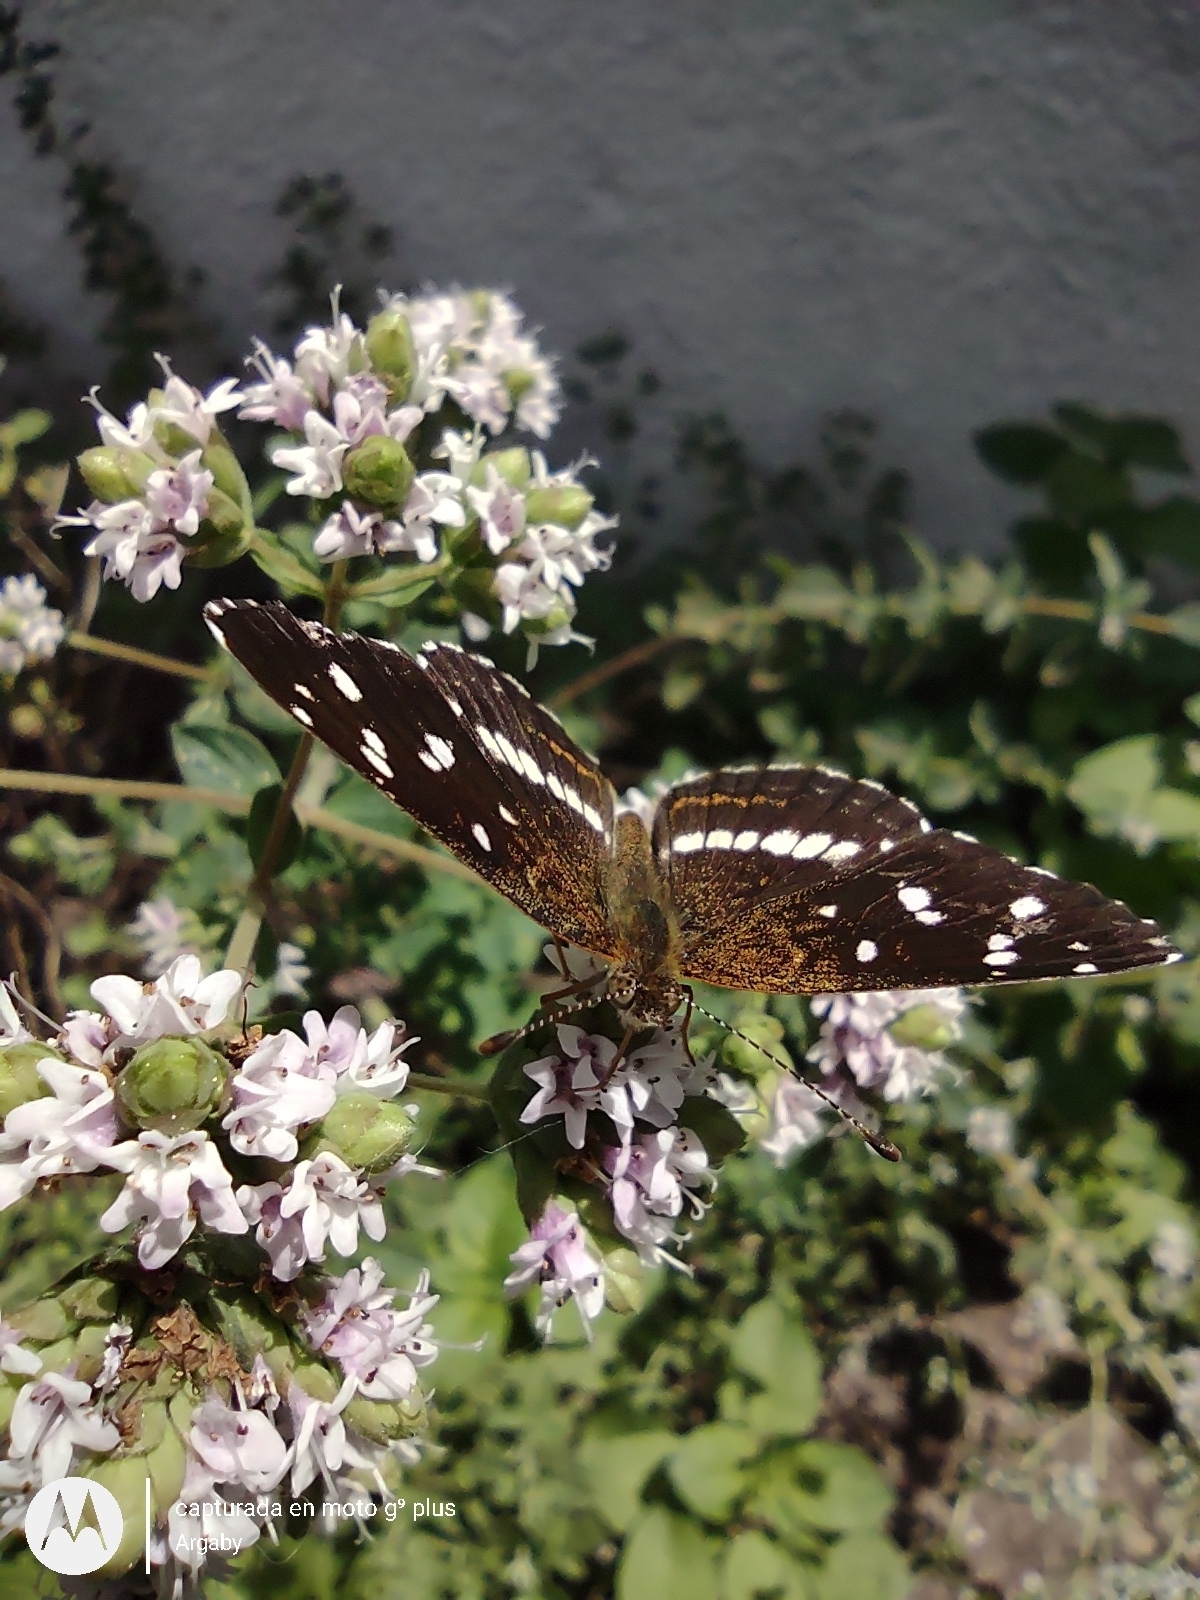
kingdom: Animalia
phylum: Arthropoda
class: Insecta
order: Lepidoptera
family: Nymphalidae
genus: Ortilia
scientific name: Ortilia ithra
